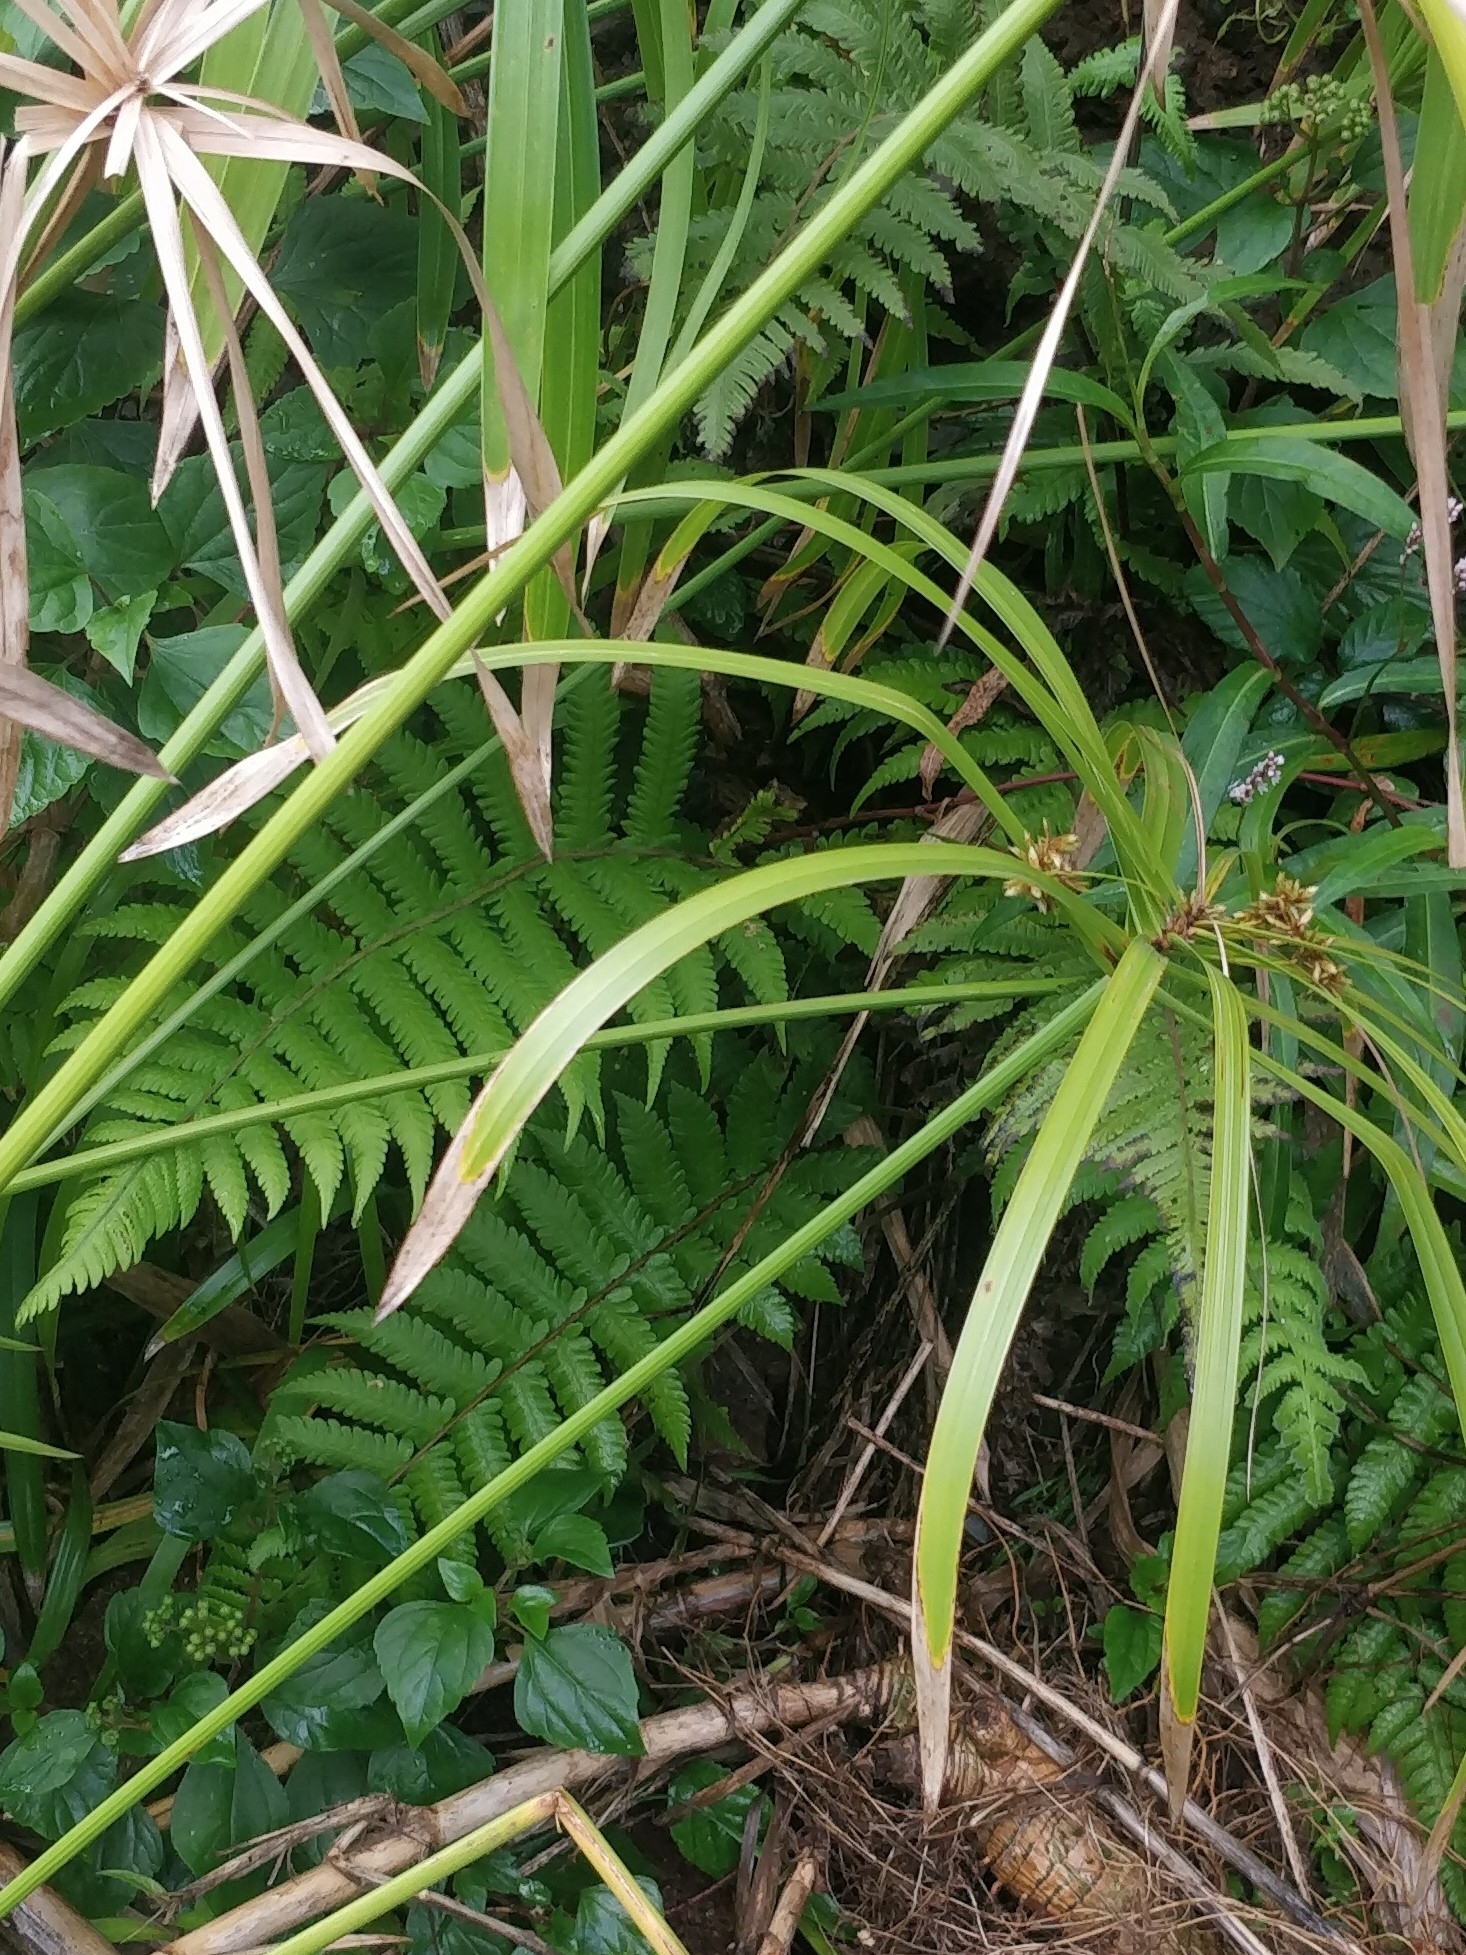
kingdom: Plantae
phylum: Tracheophyta
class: Polypodiopsida
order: Polypodiales
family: Thelypteridaceae
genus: Christella
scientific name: Christella dentata
